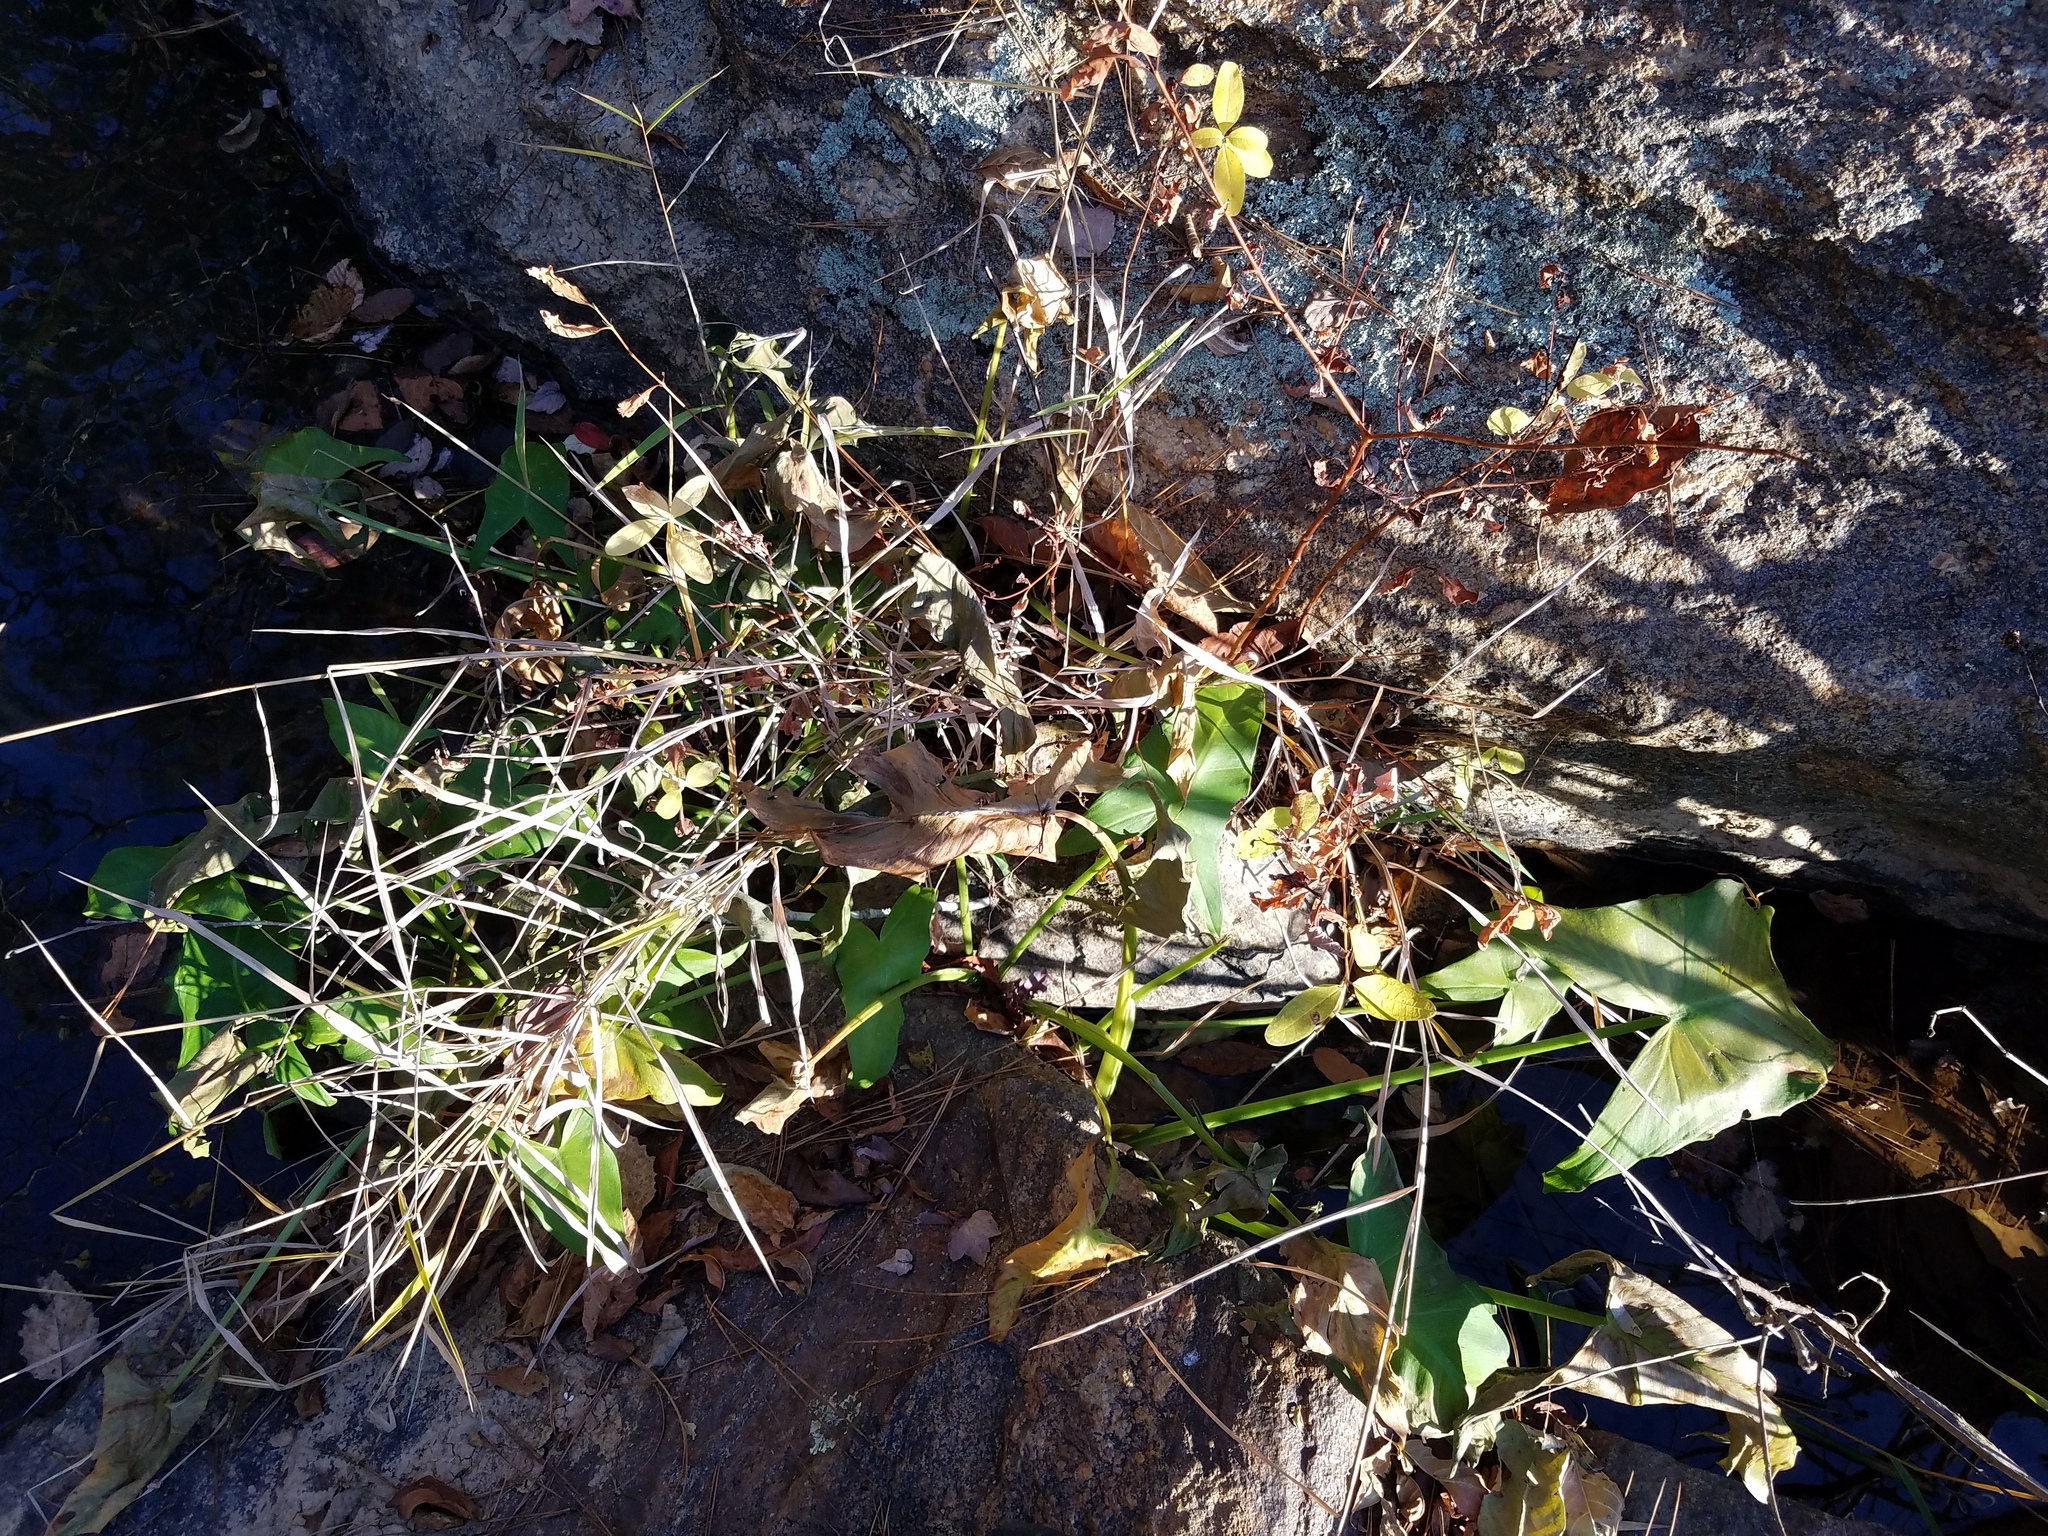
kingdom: Plantae
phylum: Tracheophyta
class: Liliopsida
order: Alismatales
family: Araceae
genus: Peltandra
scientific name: Peltandra virginica
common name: Arrow arum
